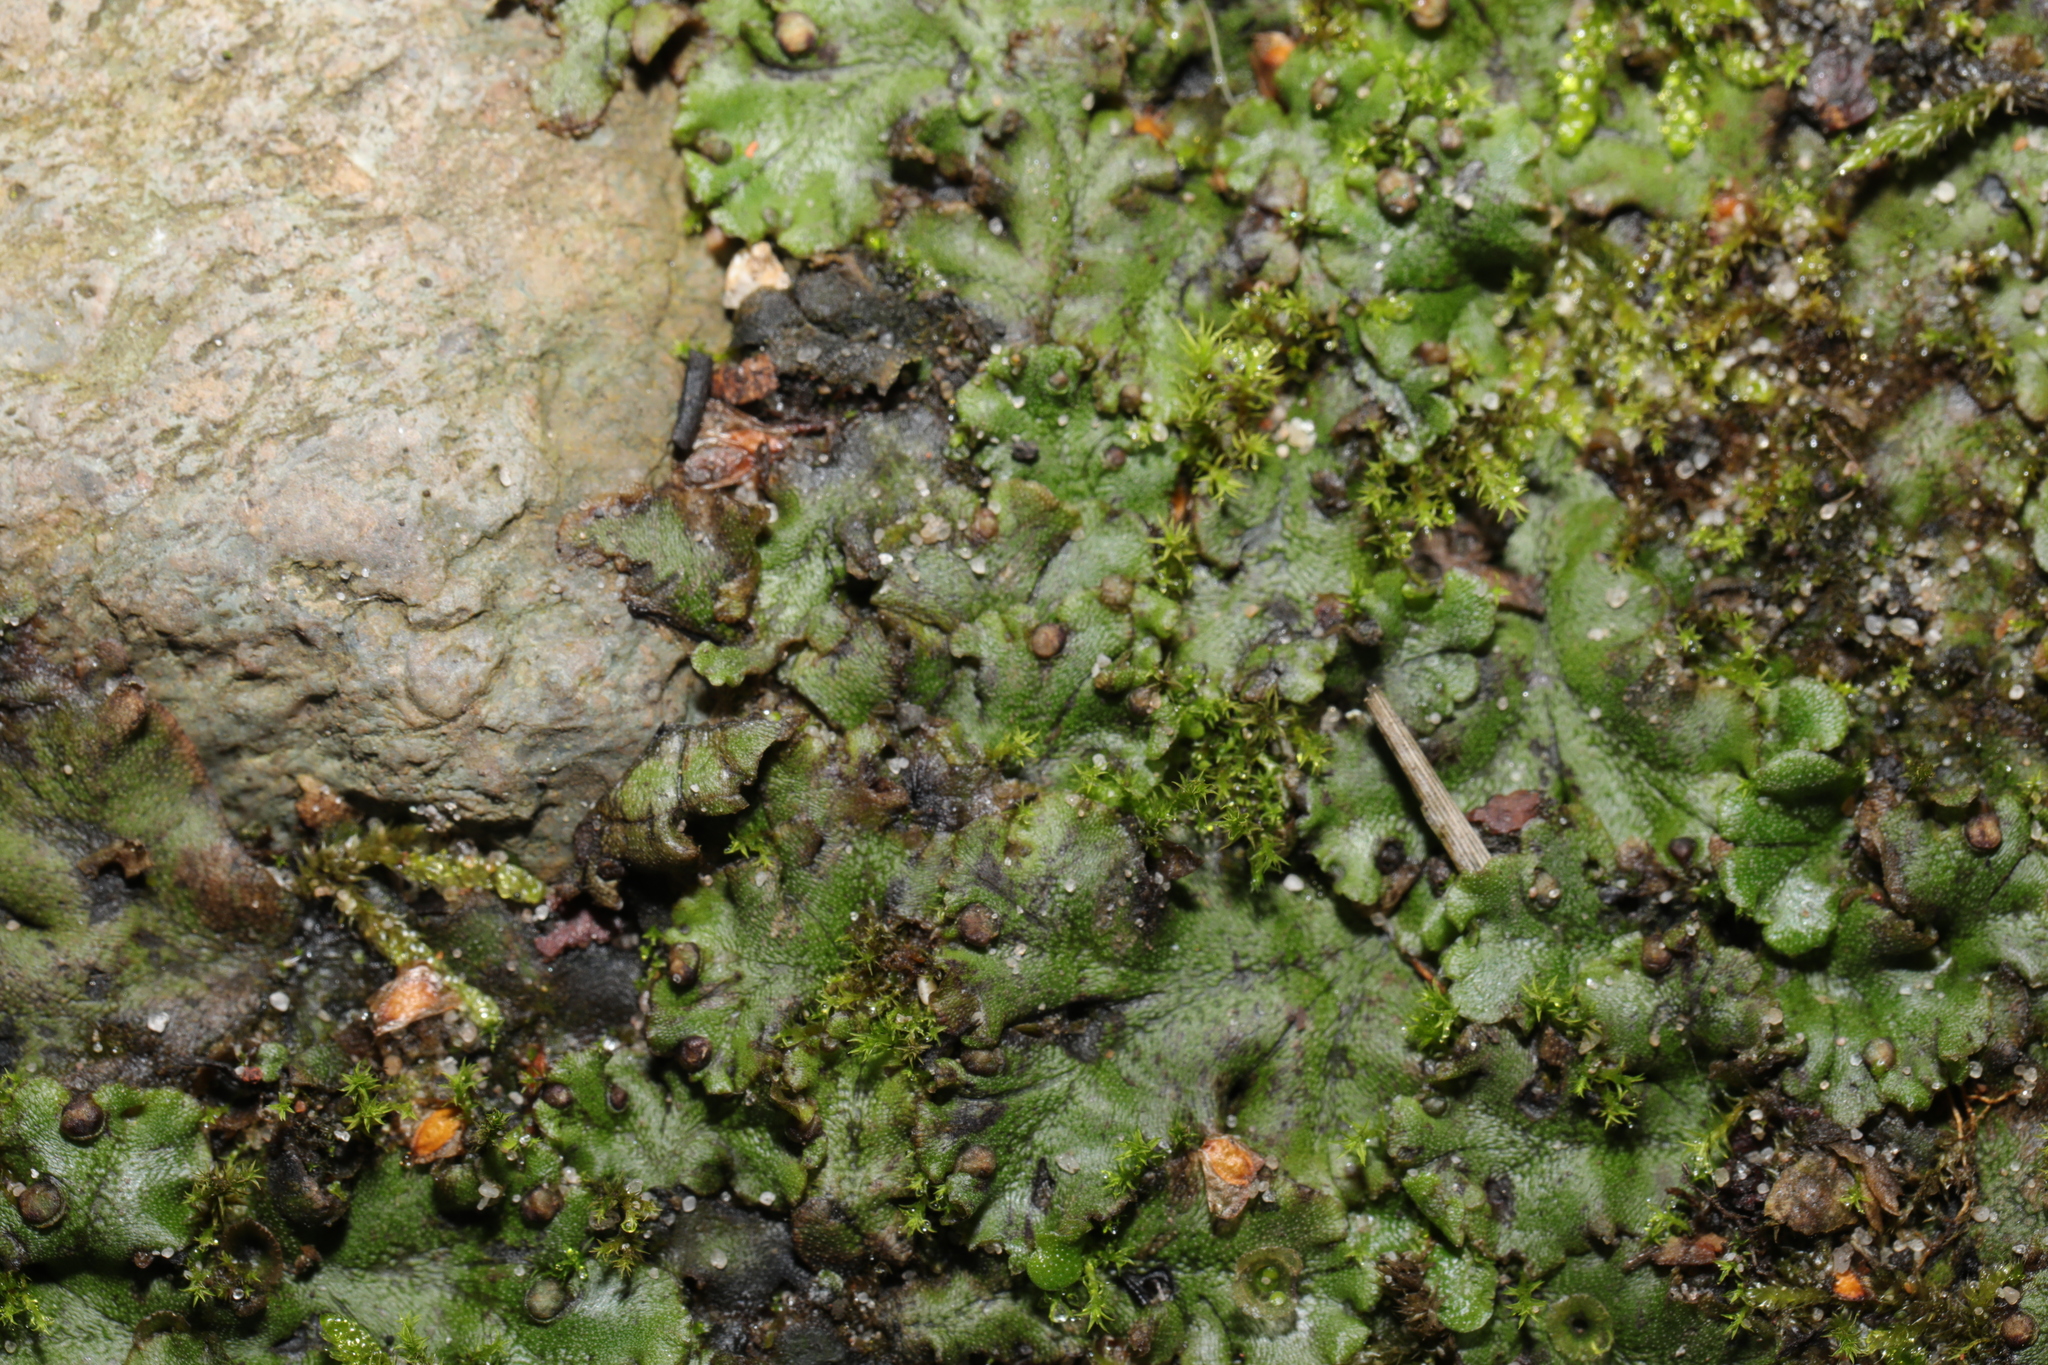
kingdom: Plantae
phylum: Marchantiophyta
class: Marchantiopsida
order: Marchantiales
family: Marchantiaceae
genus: Marchantia
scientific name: Marchantia polymorpha
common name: Common liverwort
